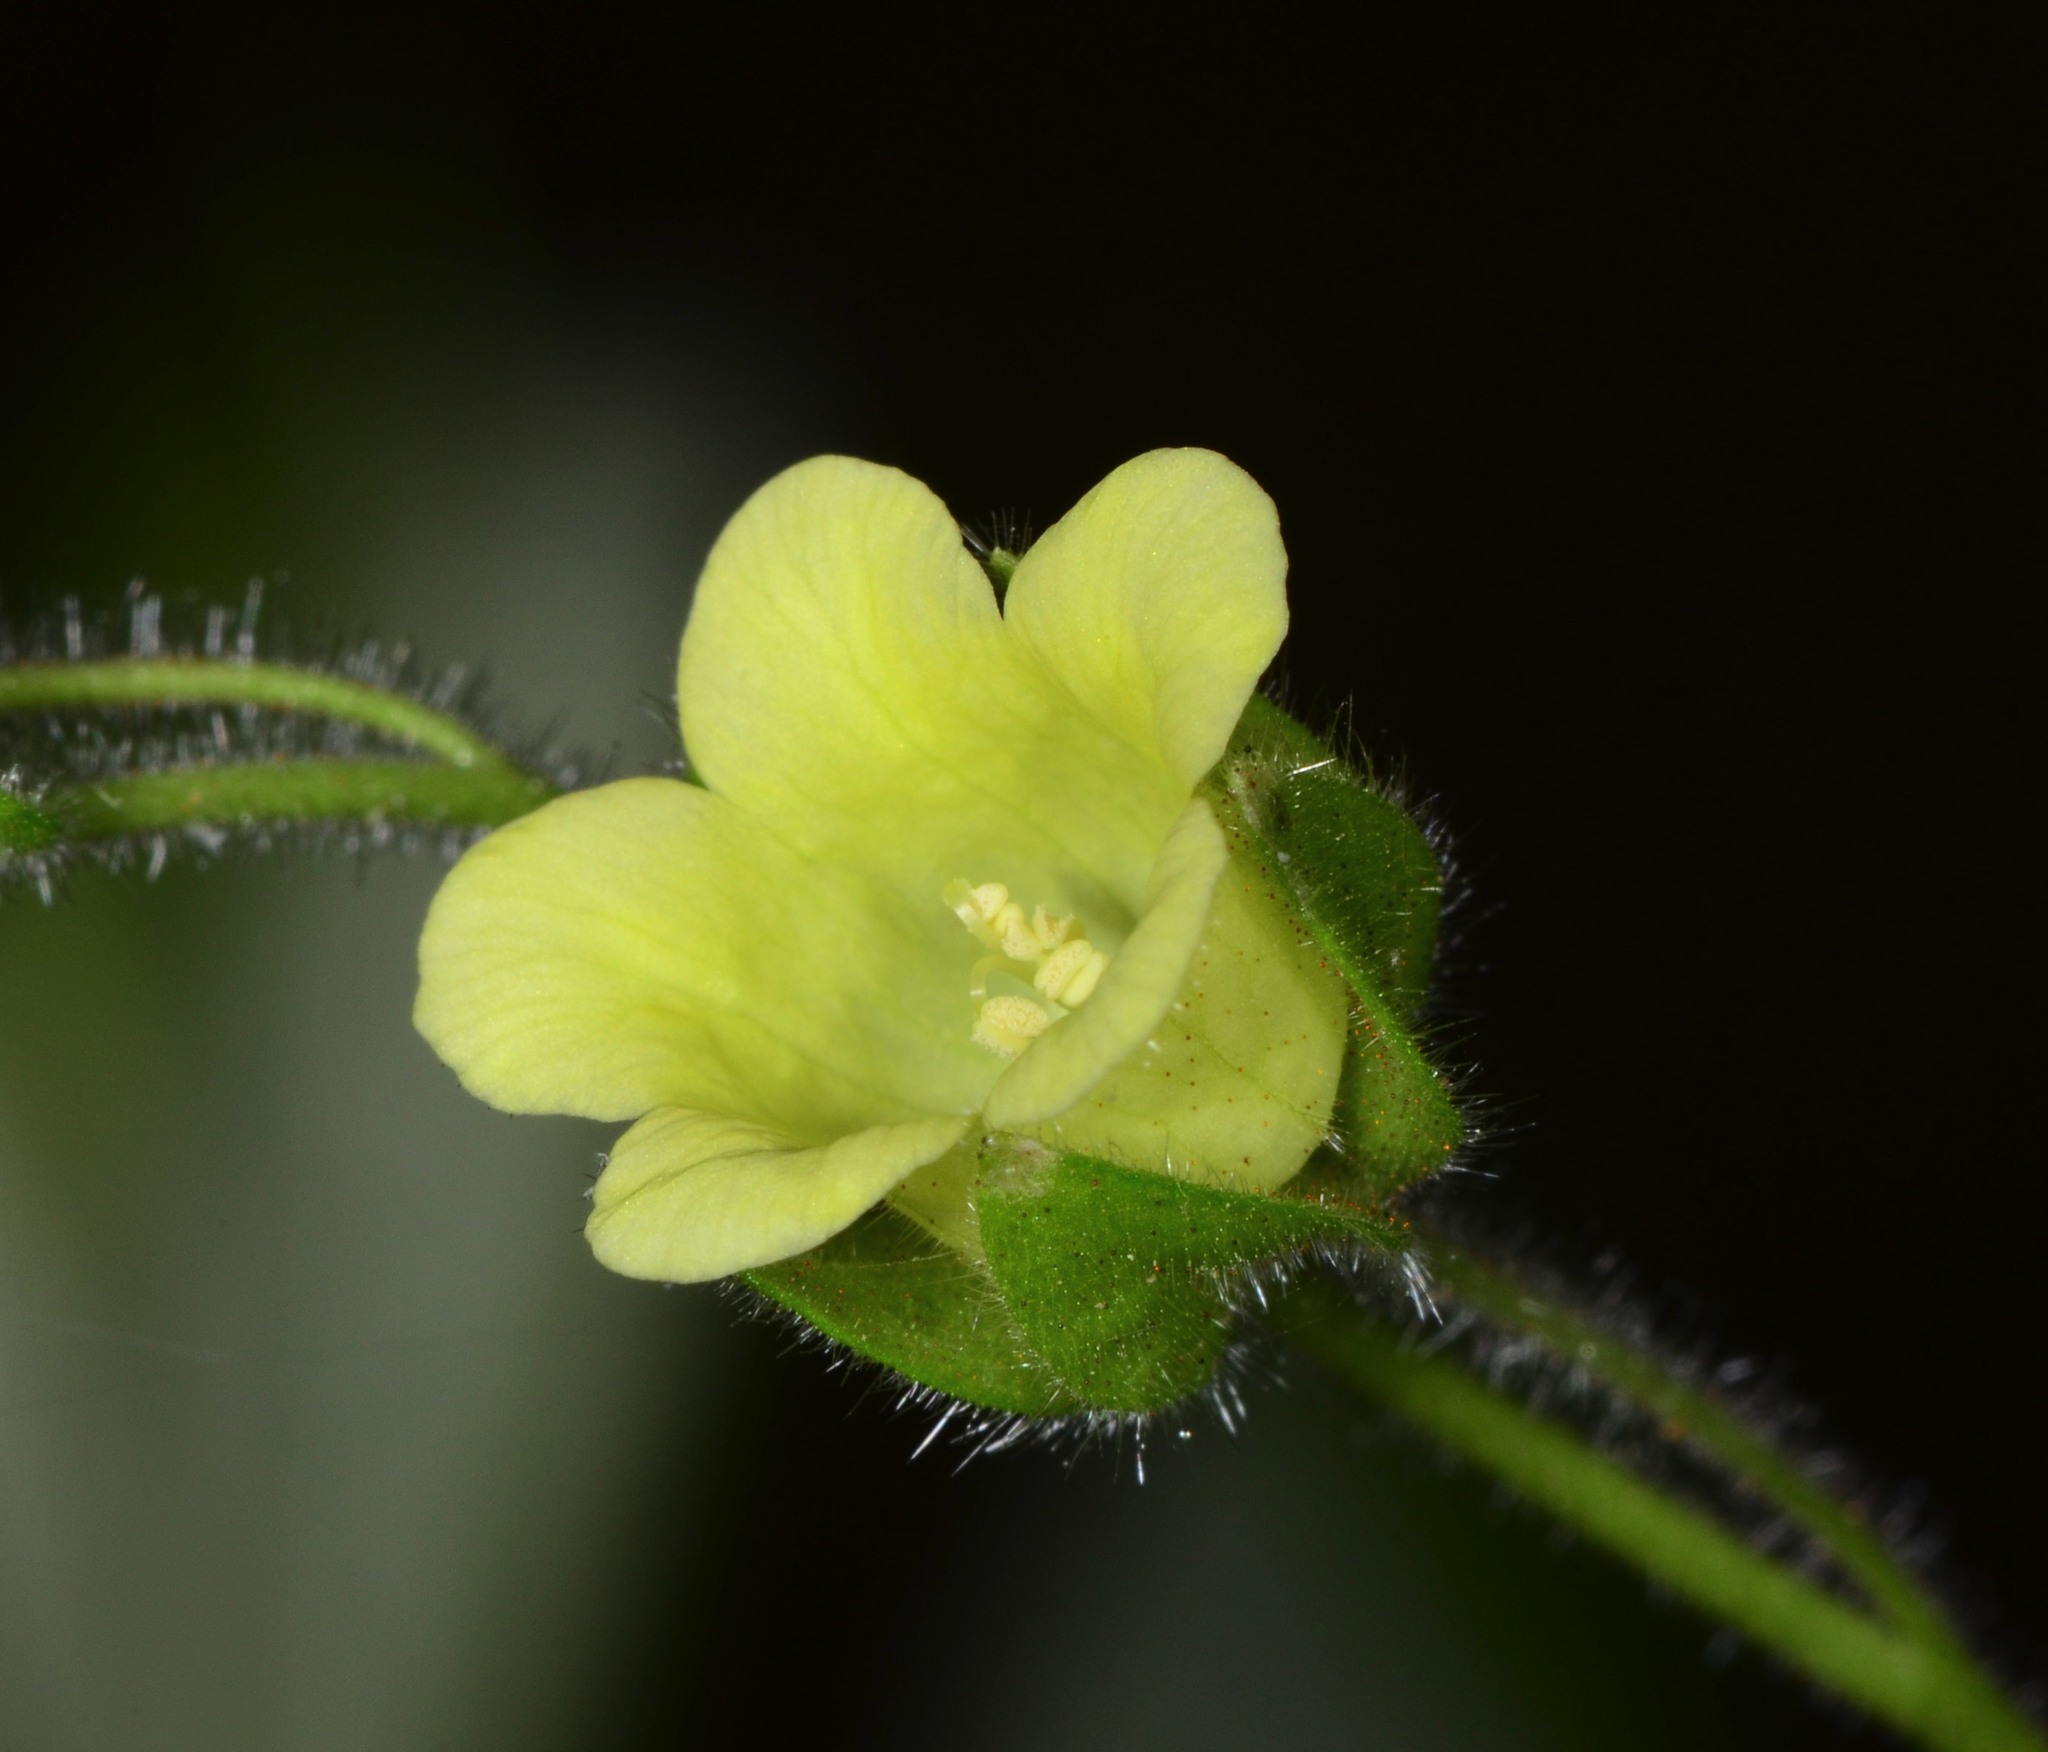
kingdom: Plantae
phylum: Tracheophyta
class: Magnoliopsida
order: Boraginales
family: Hydrophyllaceae
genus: Emmenanthe
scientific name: Emmenanthe penduliflora
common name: Whispering-bells
